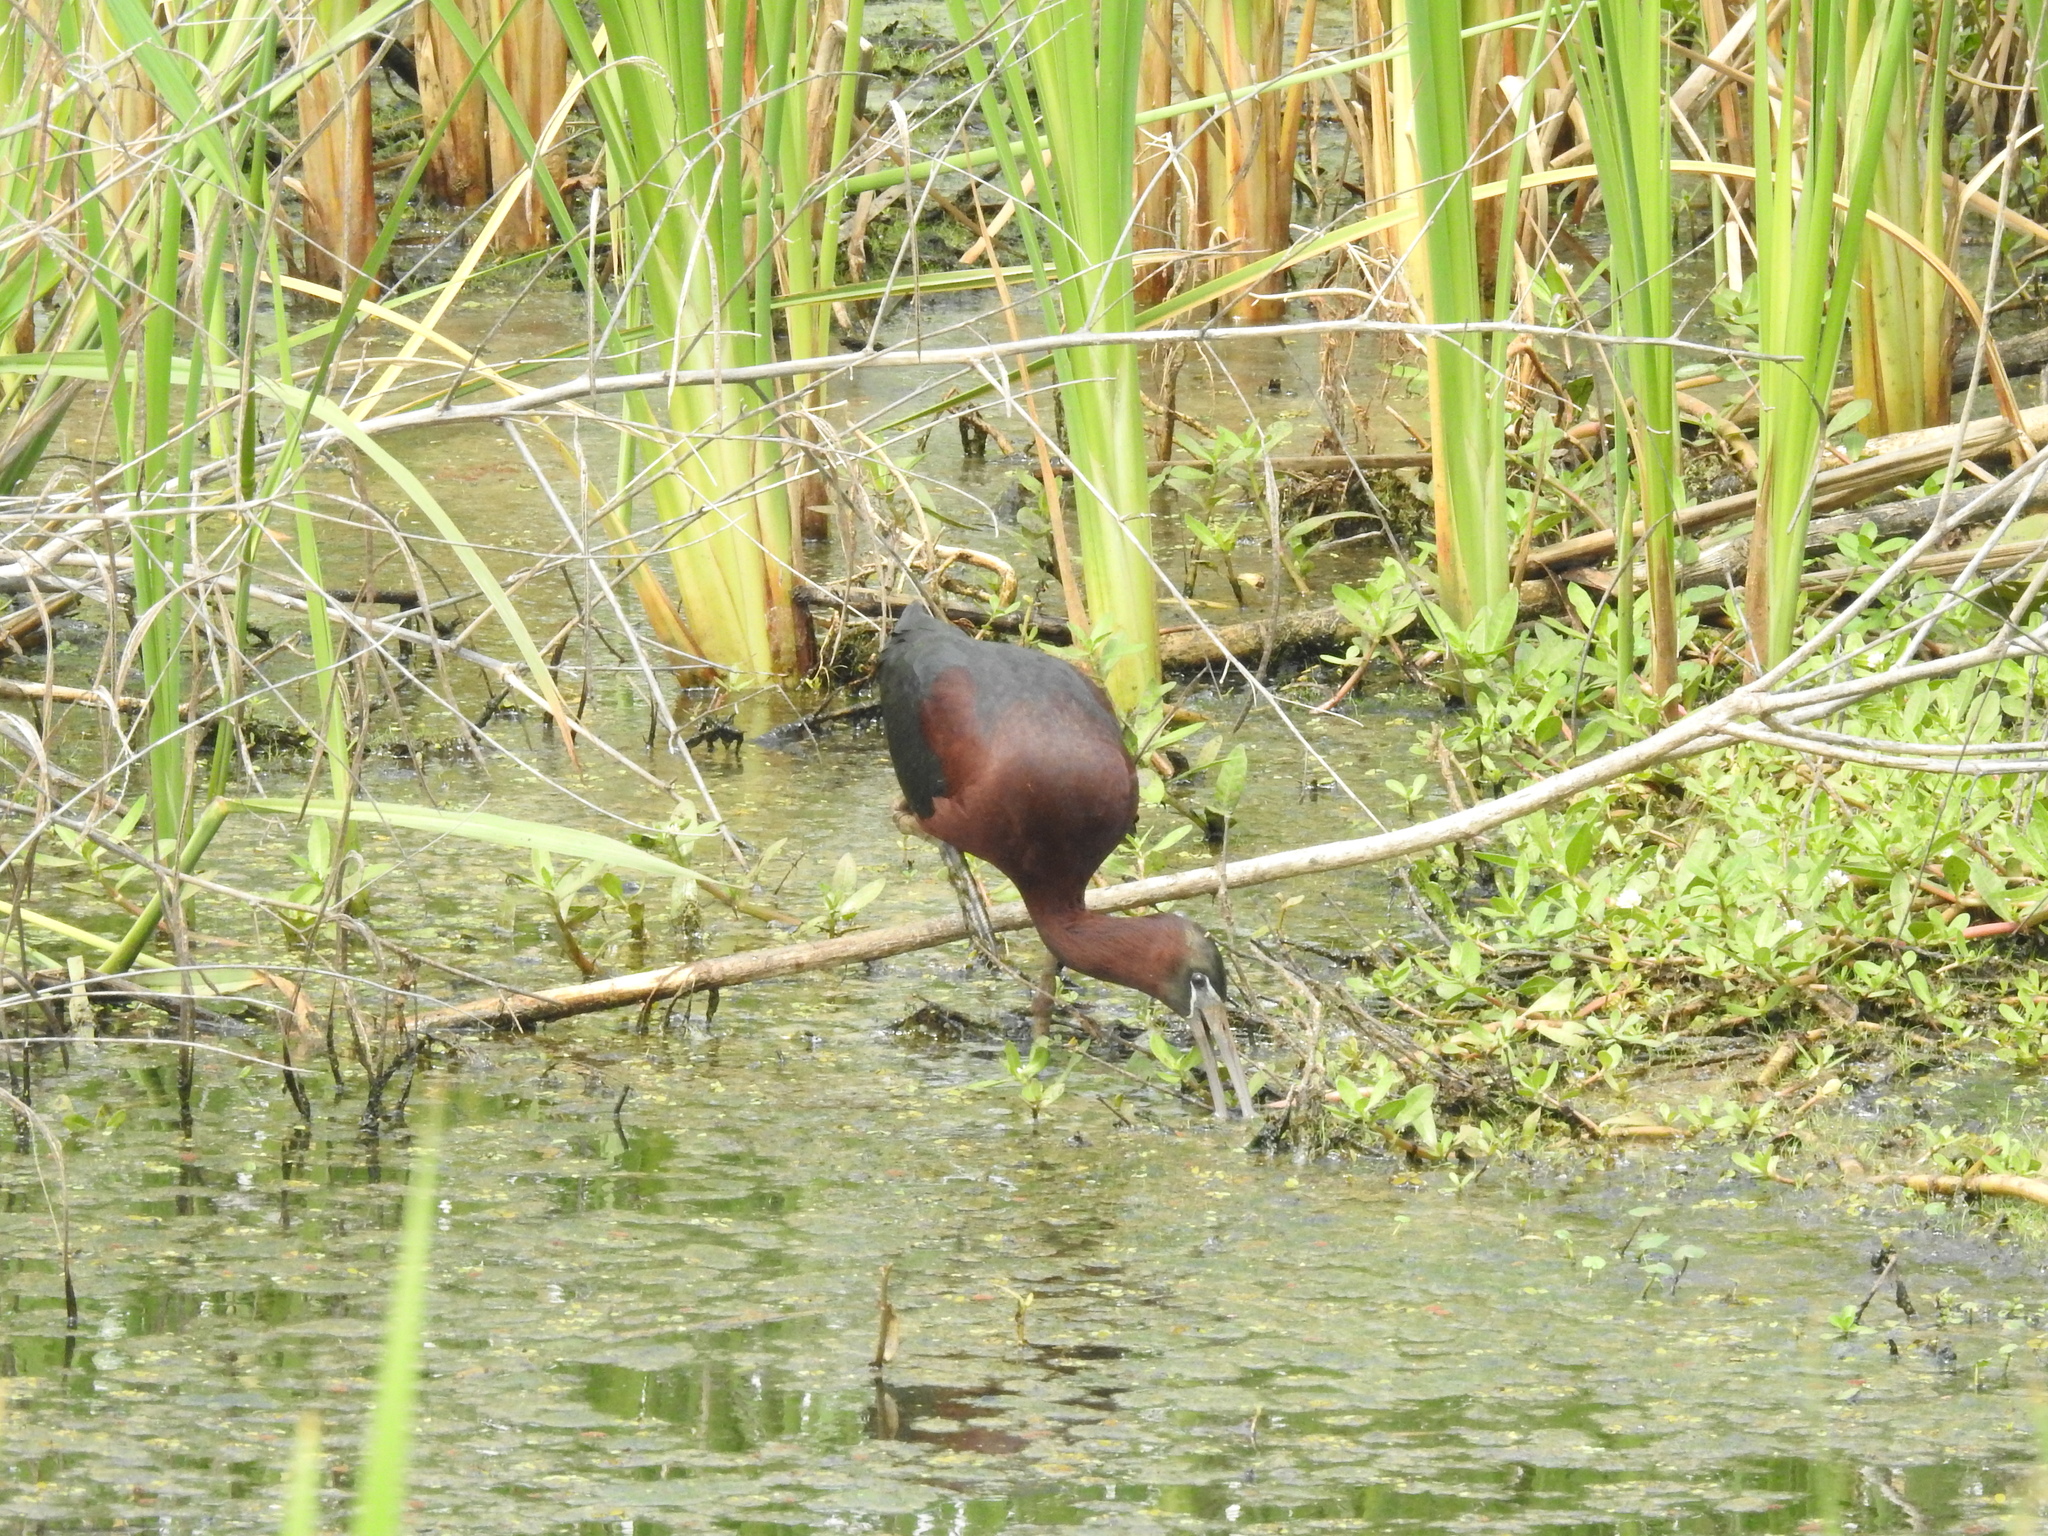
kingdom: Animalia
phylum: Chordata
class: Aves
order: Pelecaniformes
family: Threskiornithidae
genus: Plegadis
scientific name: Plegadis falcinellus
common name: Glossy ibis
